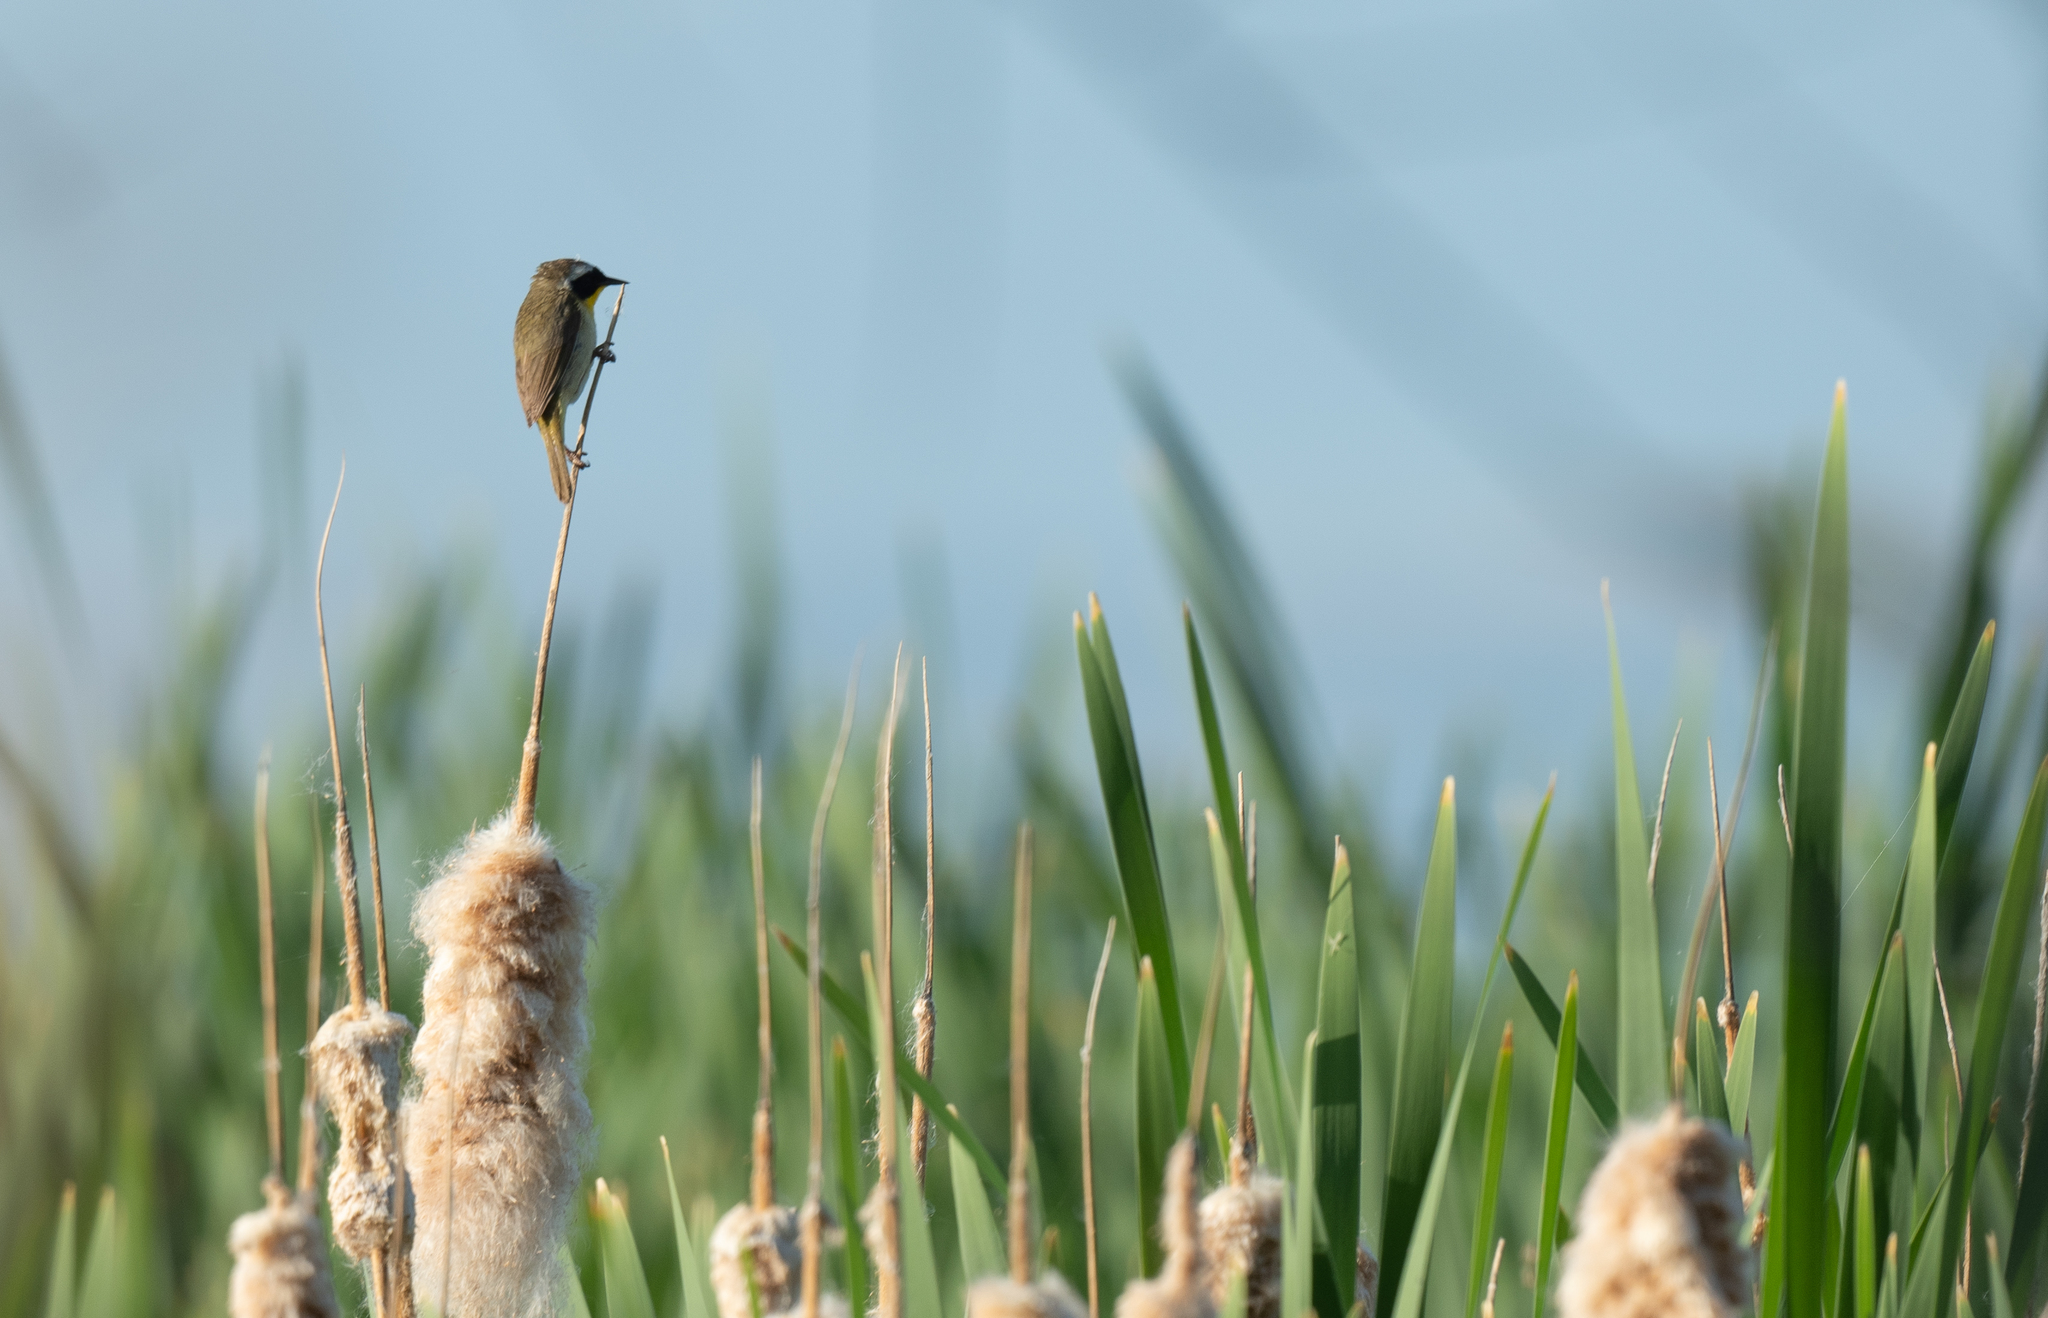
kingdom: Animalia
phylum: Chordata
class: Aves
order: Passeriformes
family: Parulidae
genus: Geothlypis
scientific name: Geothlypis trichas
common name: Common yellowthroat
